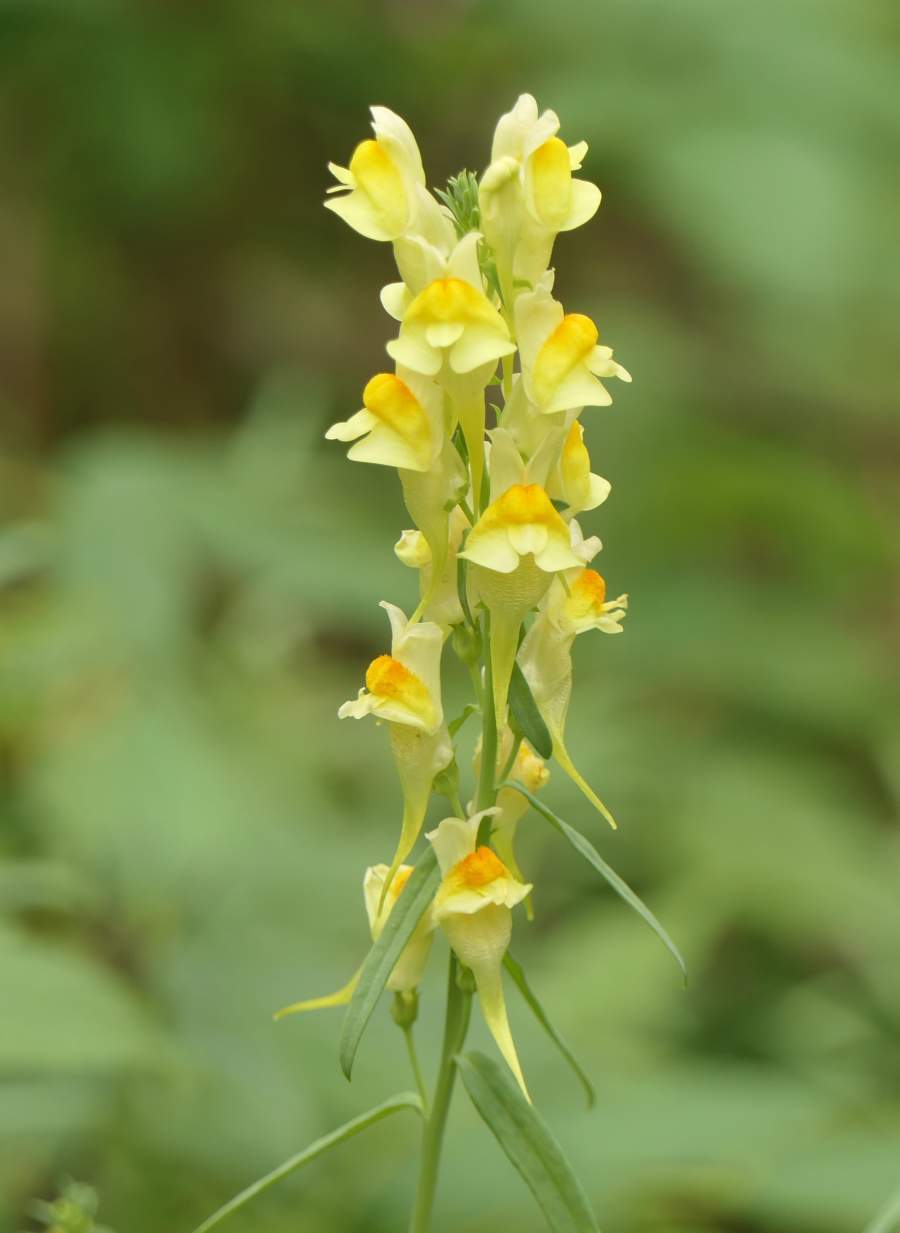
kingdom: Plantae
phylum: Tracheophyta
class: Magnoliopsida
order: Lamiales
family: Plantaginaceae
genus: Linaria
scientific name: Linaria vulgaris
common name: Butter and eggs
